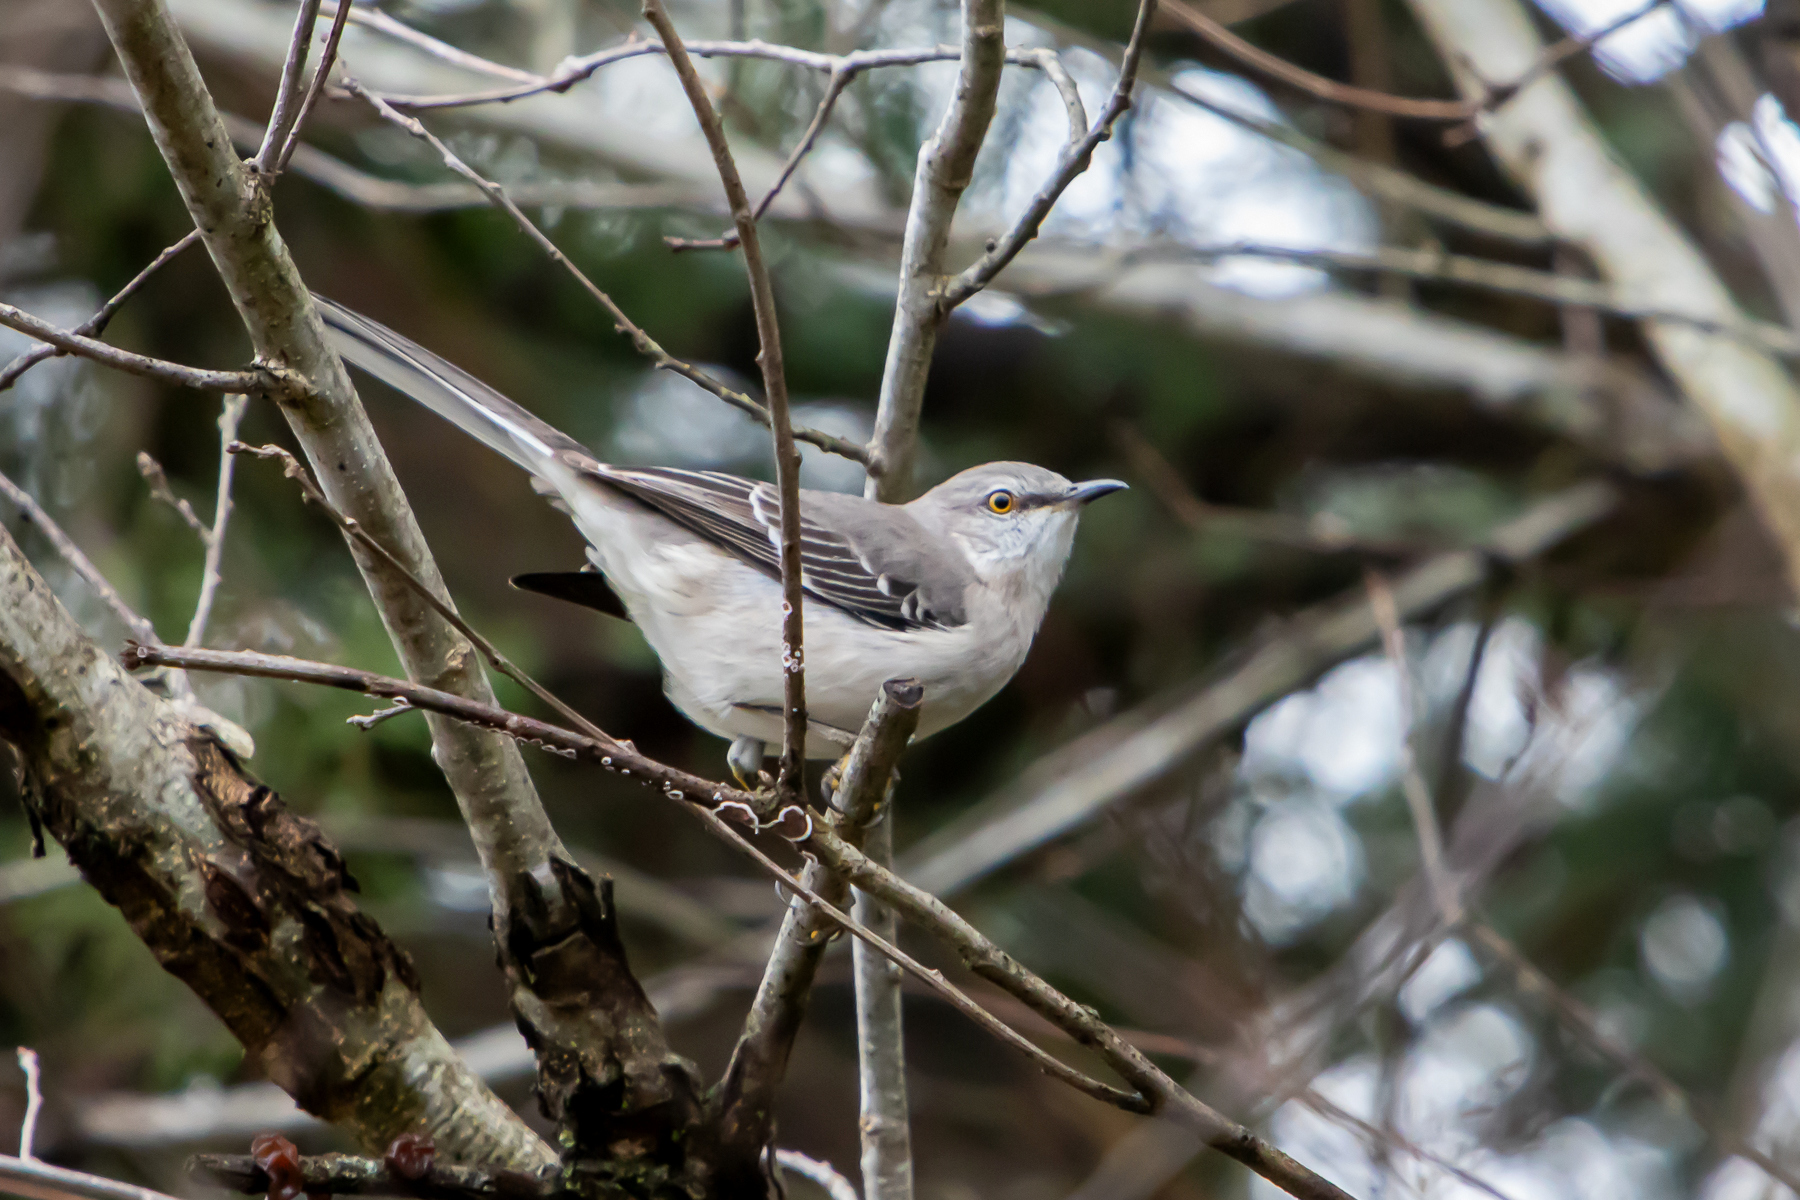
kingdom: Animalia
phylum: Chordata
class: Aves
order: Passeriformes
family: Mimidae
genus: Mimus
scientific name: Mimus polyglottos
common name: Northern mockingbird
